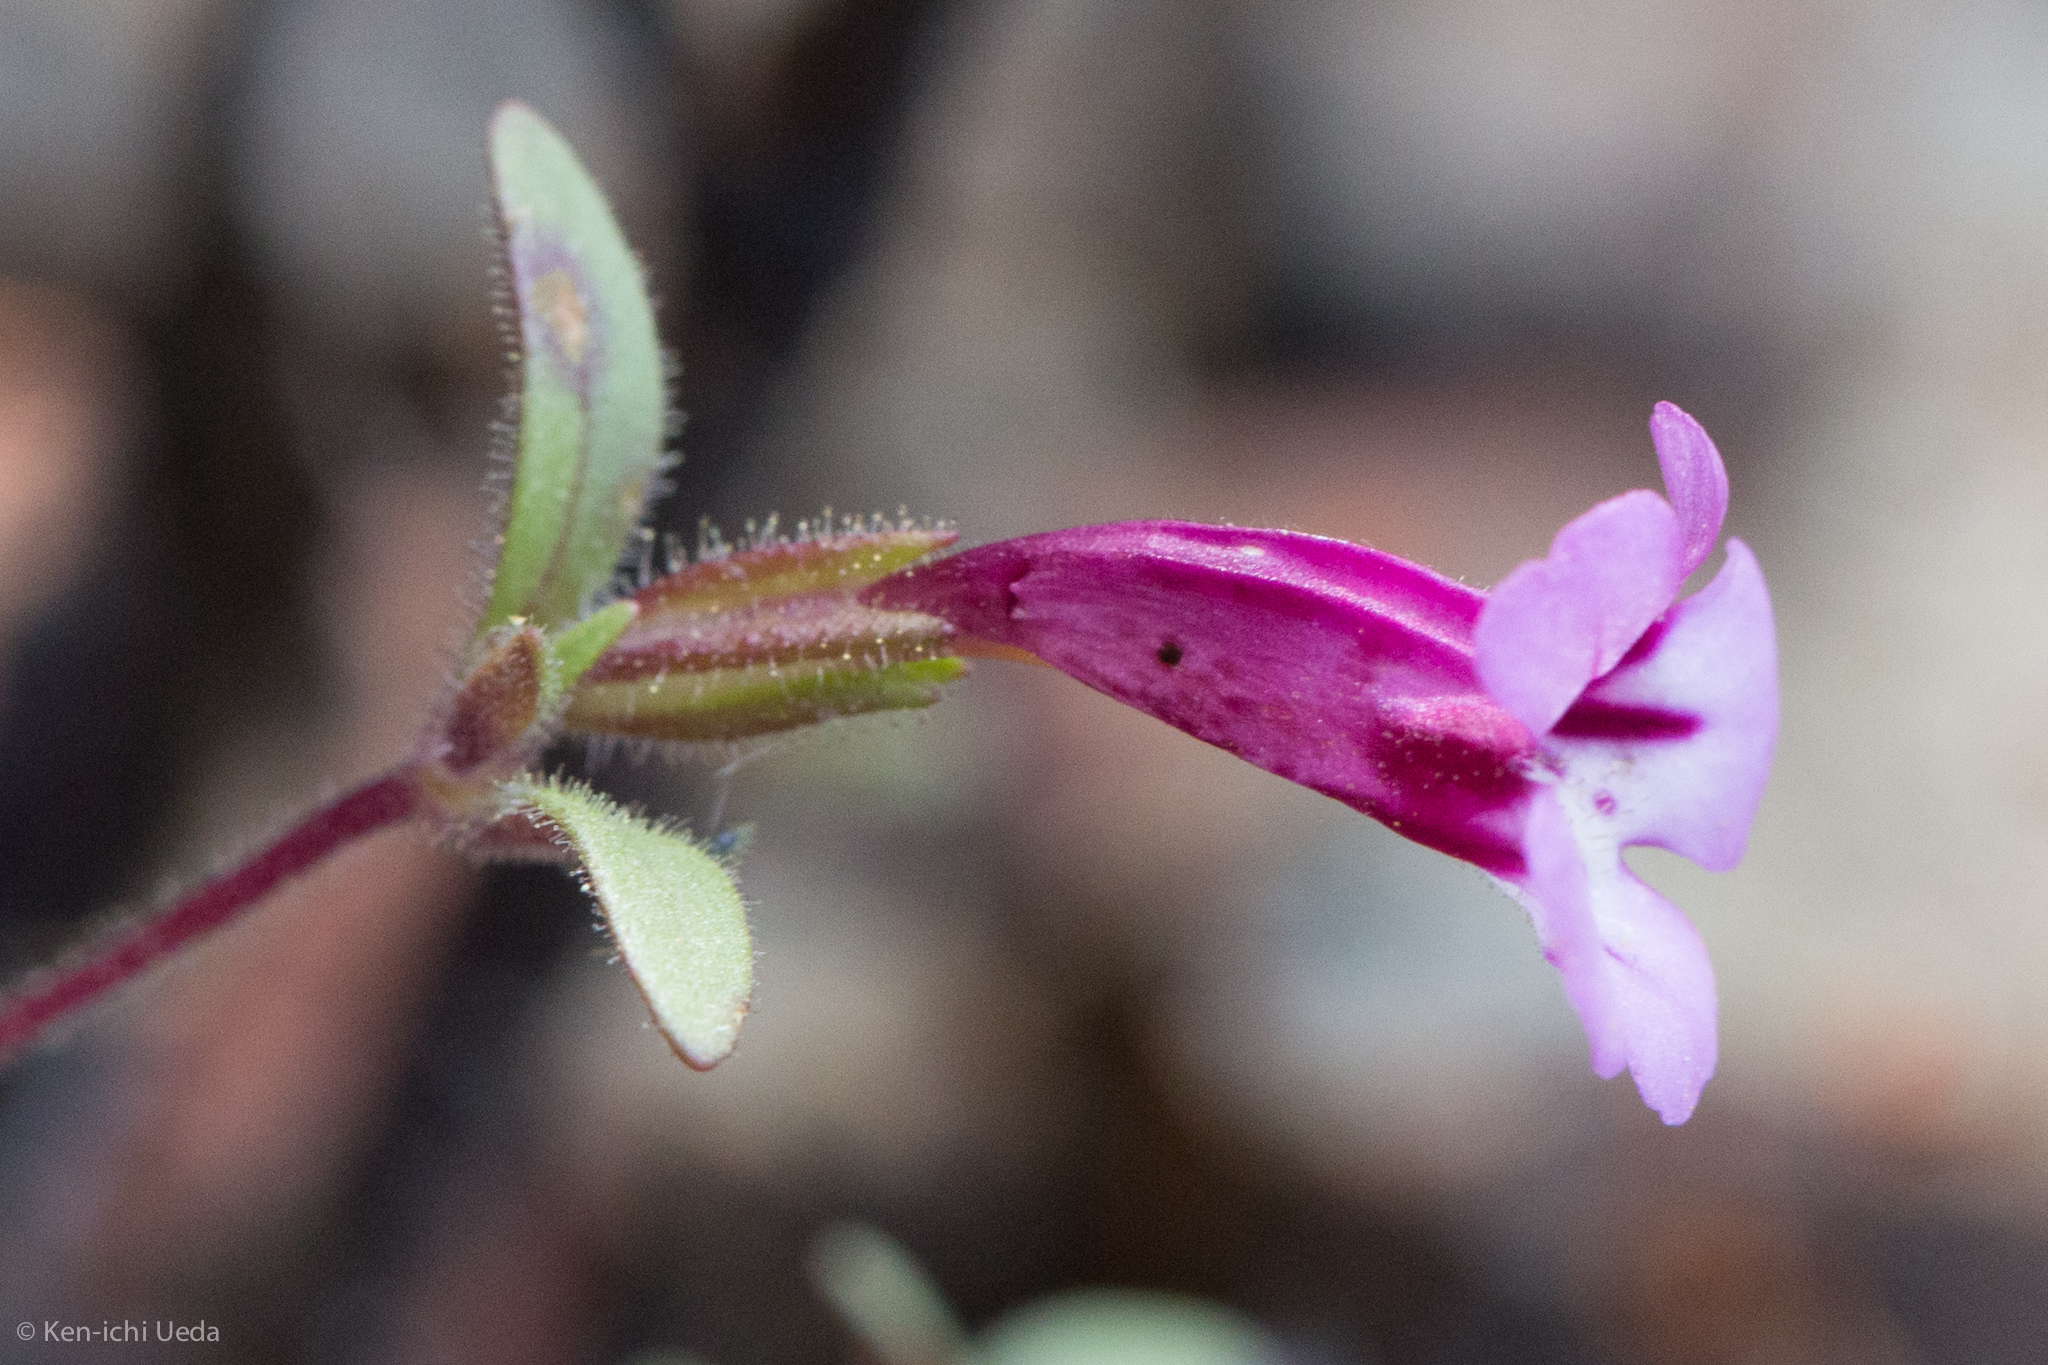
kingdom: Plantae
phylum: Tracheophyta
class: Magnoliopsida
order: Lamiales
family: Phrymaceae
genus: Diplacus
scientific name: Diplacus layneae
